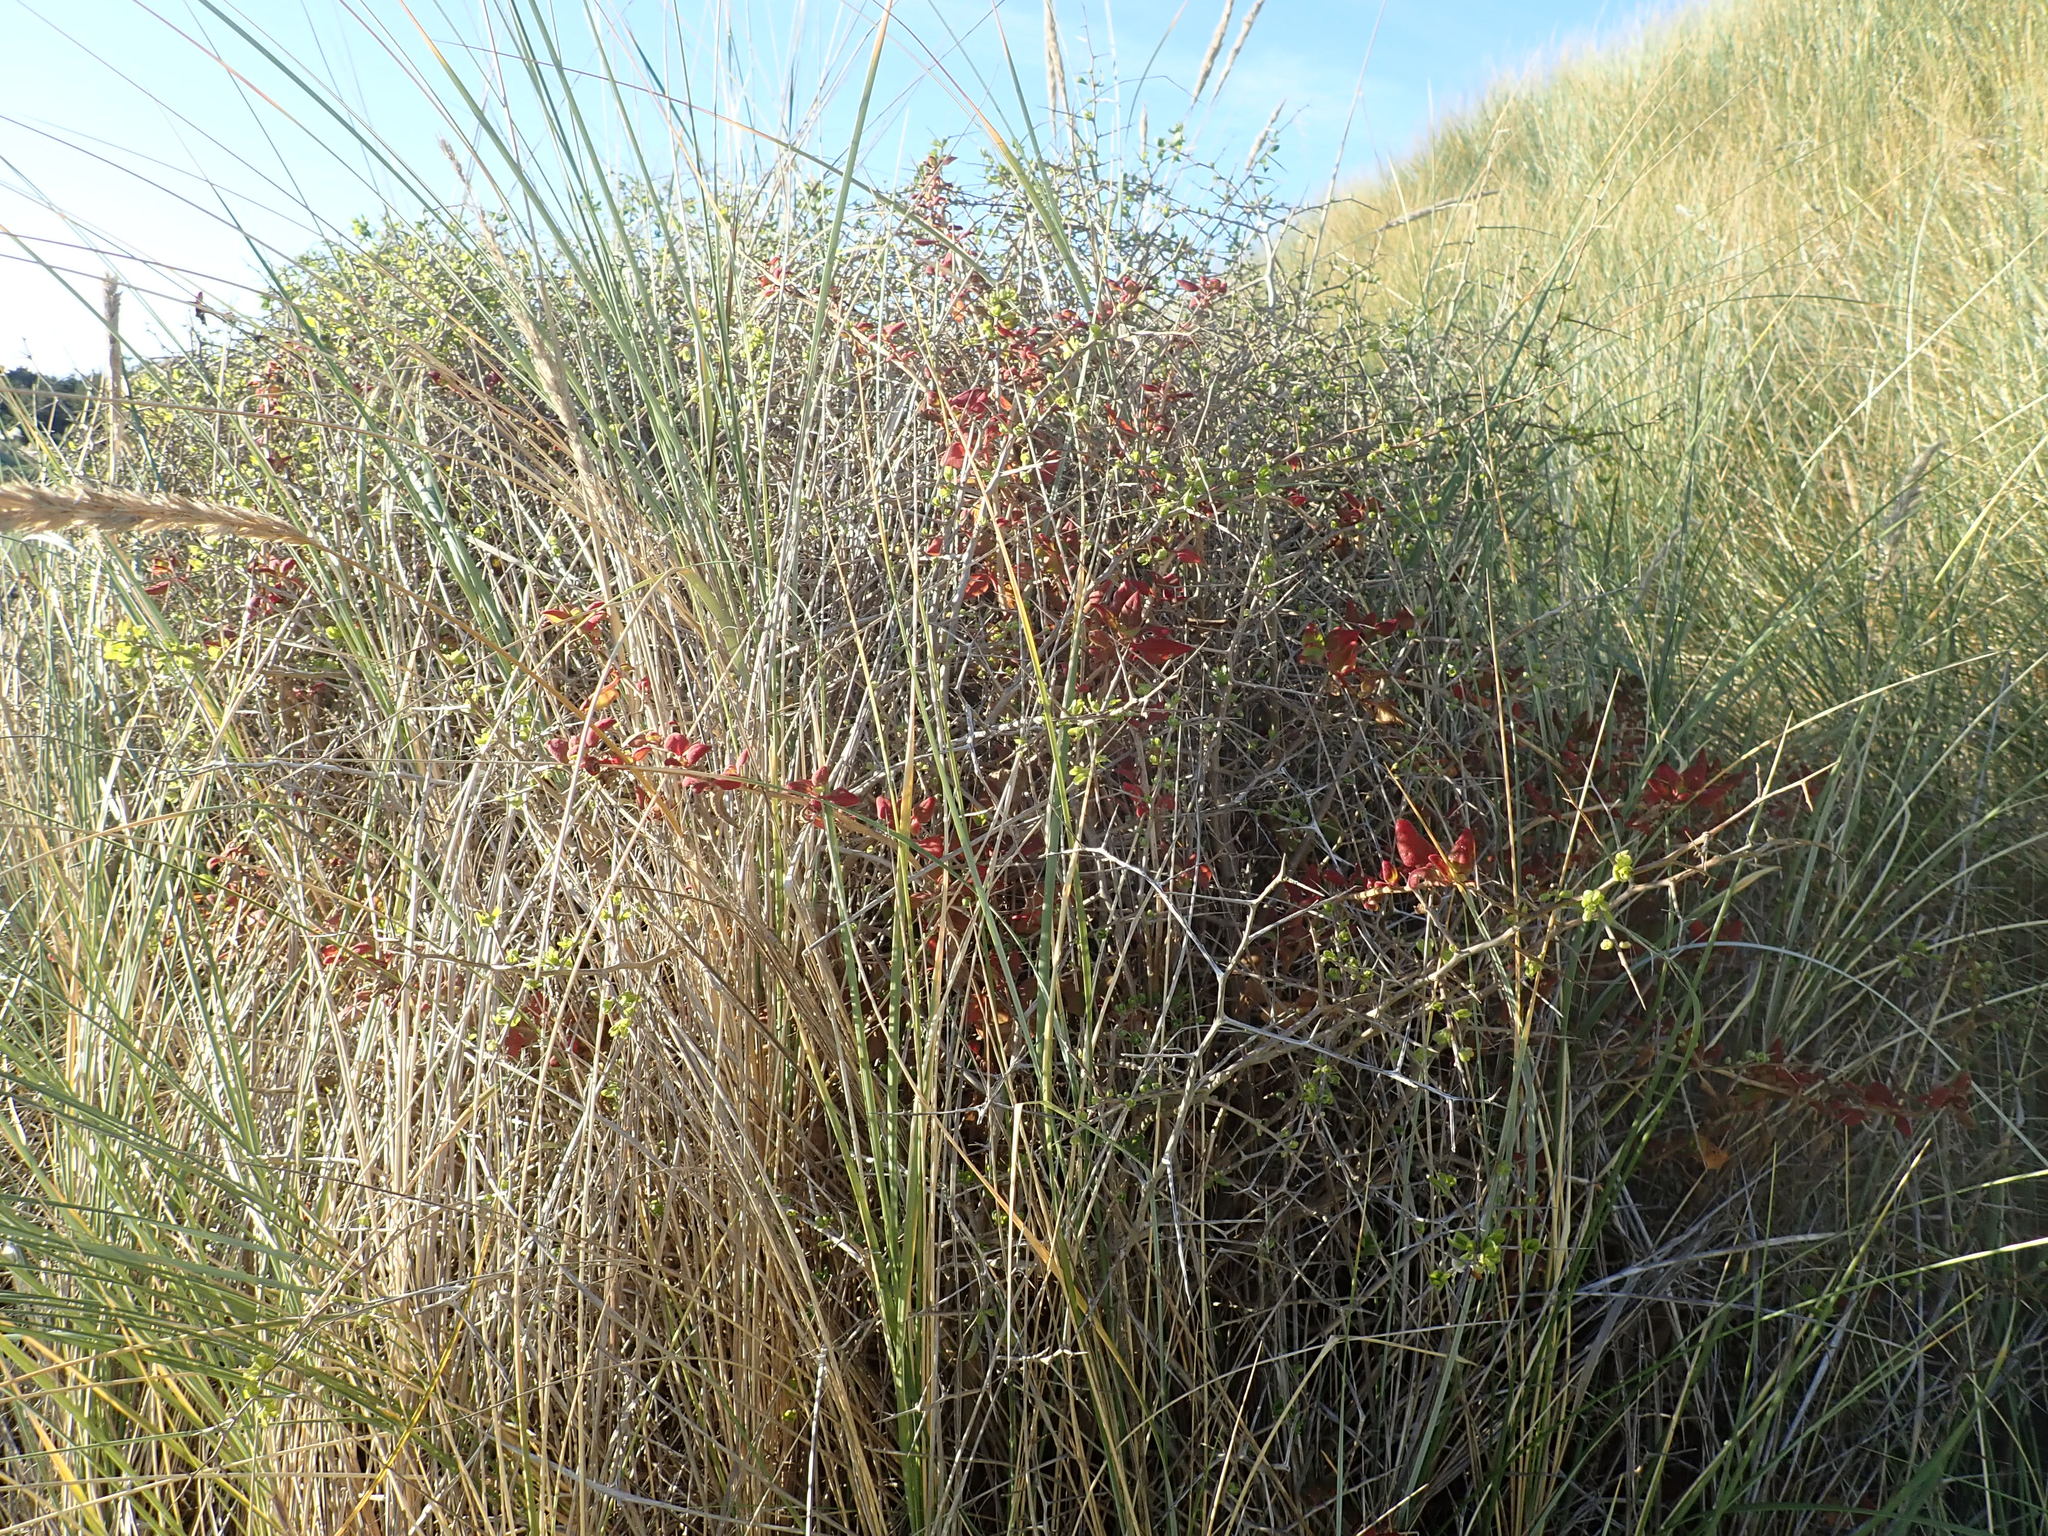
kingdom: Plantae
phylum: Tracheophyta
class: Magnoliopsida
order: Solanales
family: Solanaceae
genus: Lycium
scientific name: Lycium ferocissimum
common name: African boxthorn
